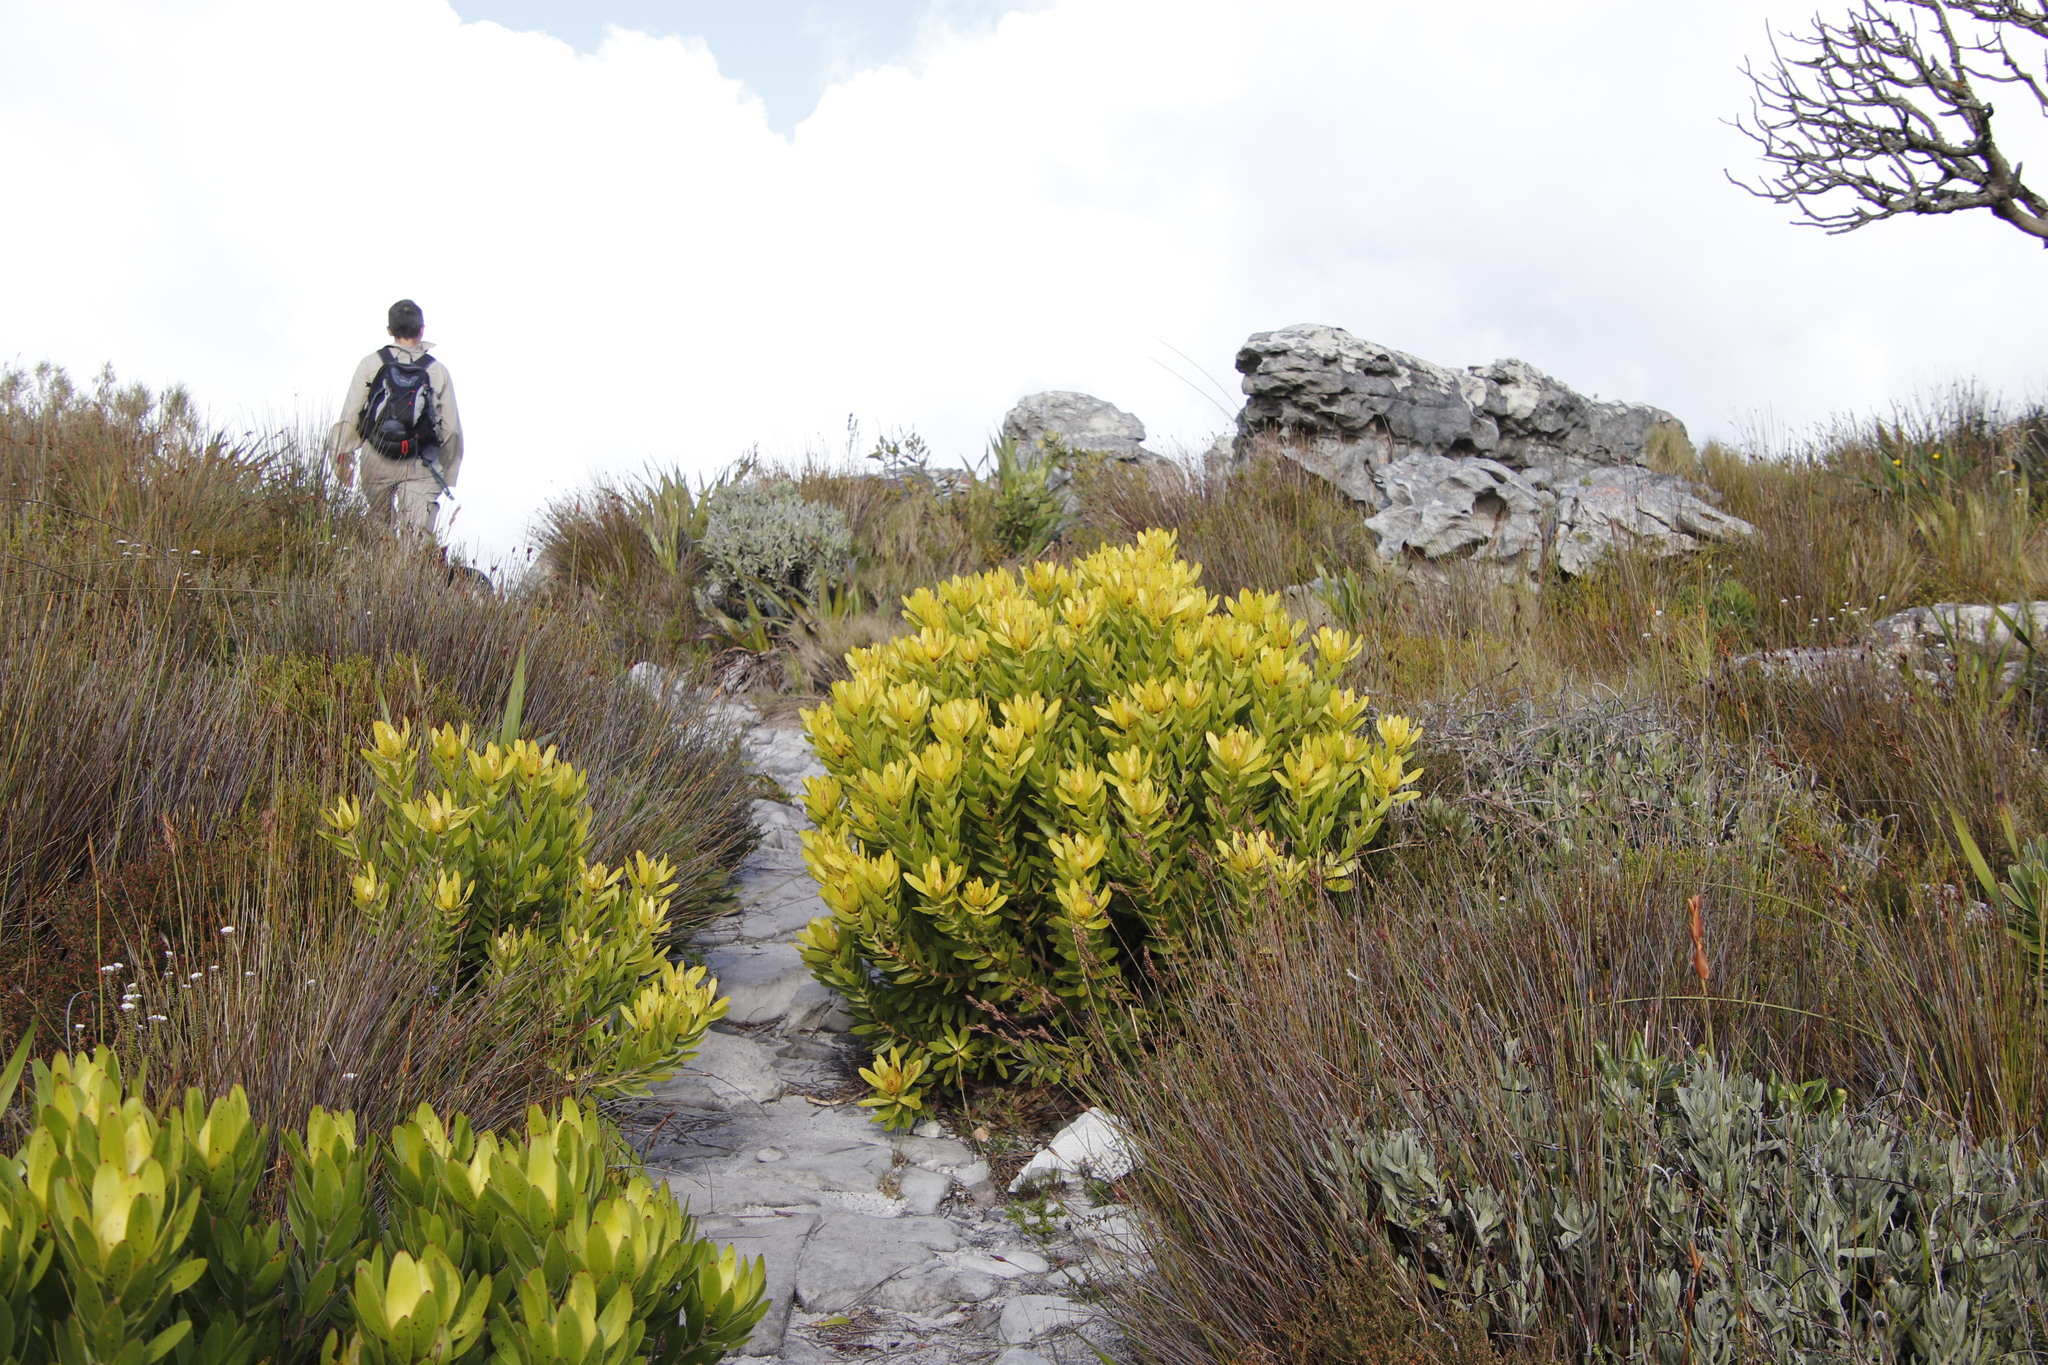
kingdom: Plantae
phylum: Tracheophyta
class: Magnoliopsida
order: Proteales
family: Proteaceae
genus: Leucadendron
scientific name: Leucadendron laureolum
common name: Golden sunshinebush
